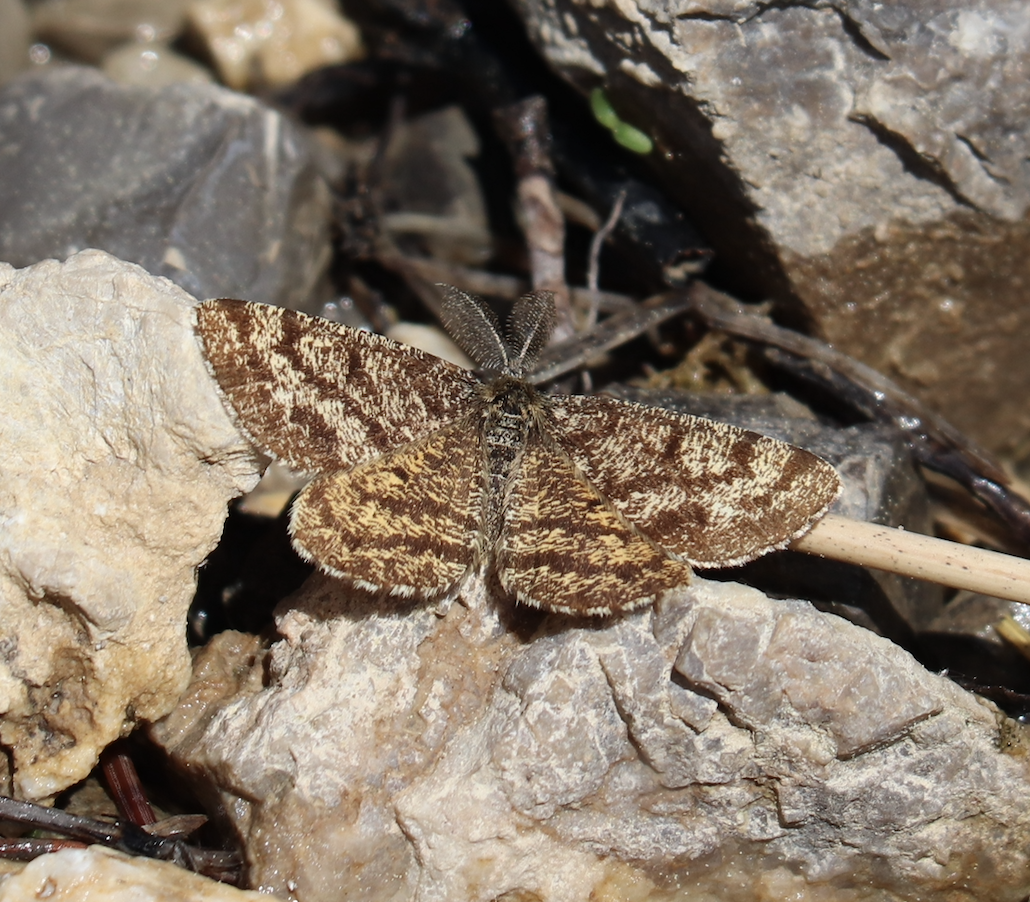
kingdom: Animalia
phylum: Arthropoda
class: Insecta
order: Lepidoptera
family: Geometridae
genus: Ematurga
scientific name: Ematurga atomaria
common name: Common heath
